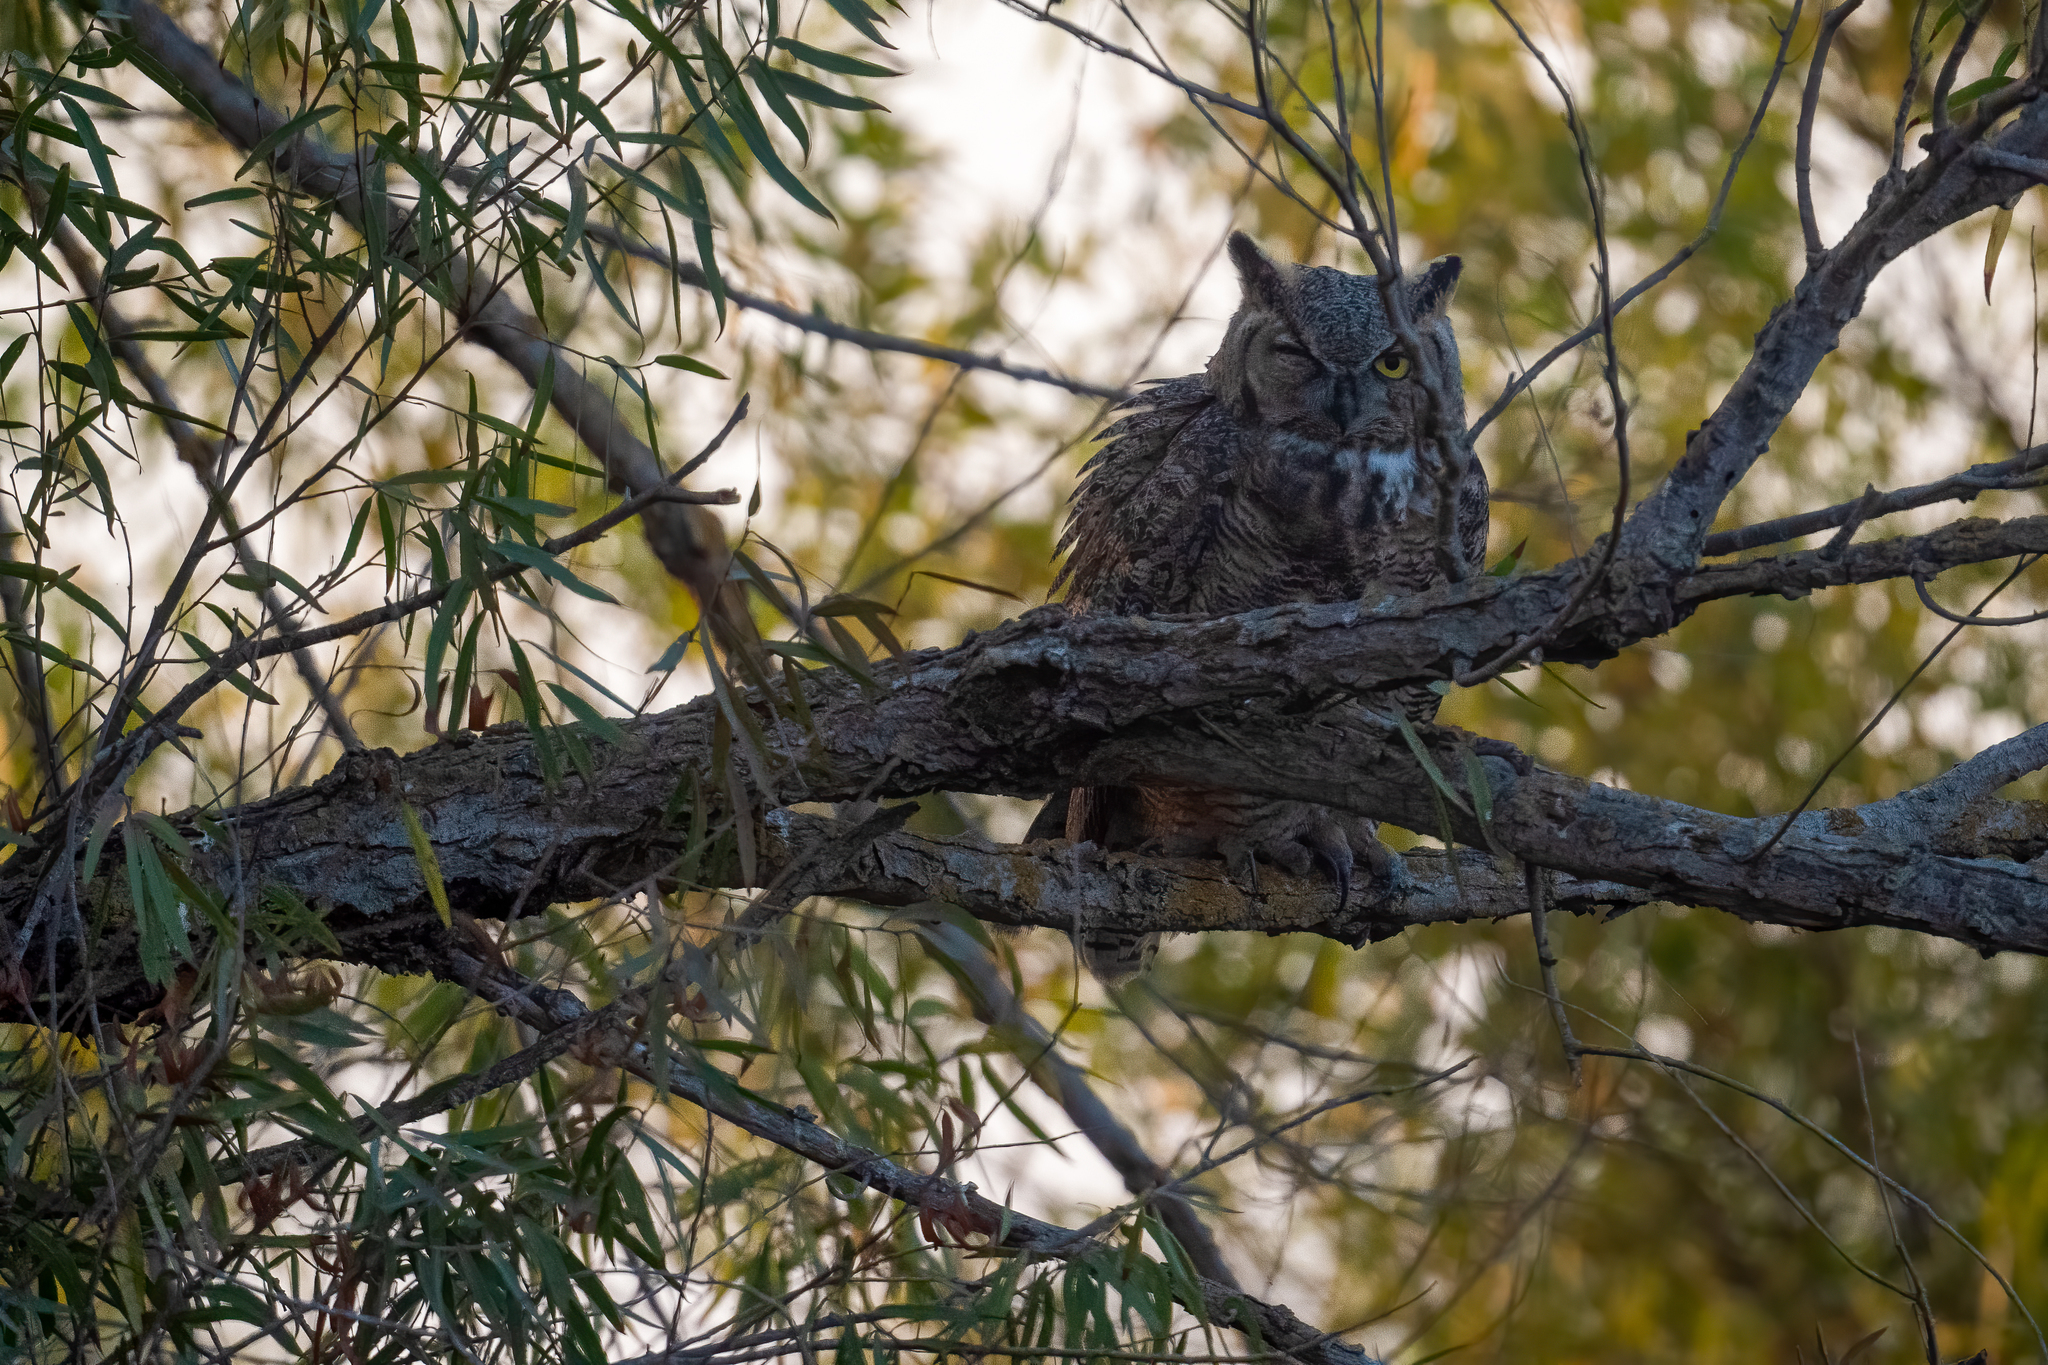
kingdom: Animalia
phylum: Chordata
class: Aves
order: Strigiformes
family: Strigidae
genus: Bubo
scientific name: Bubo virginianus
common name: Great horned owl
